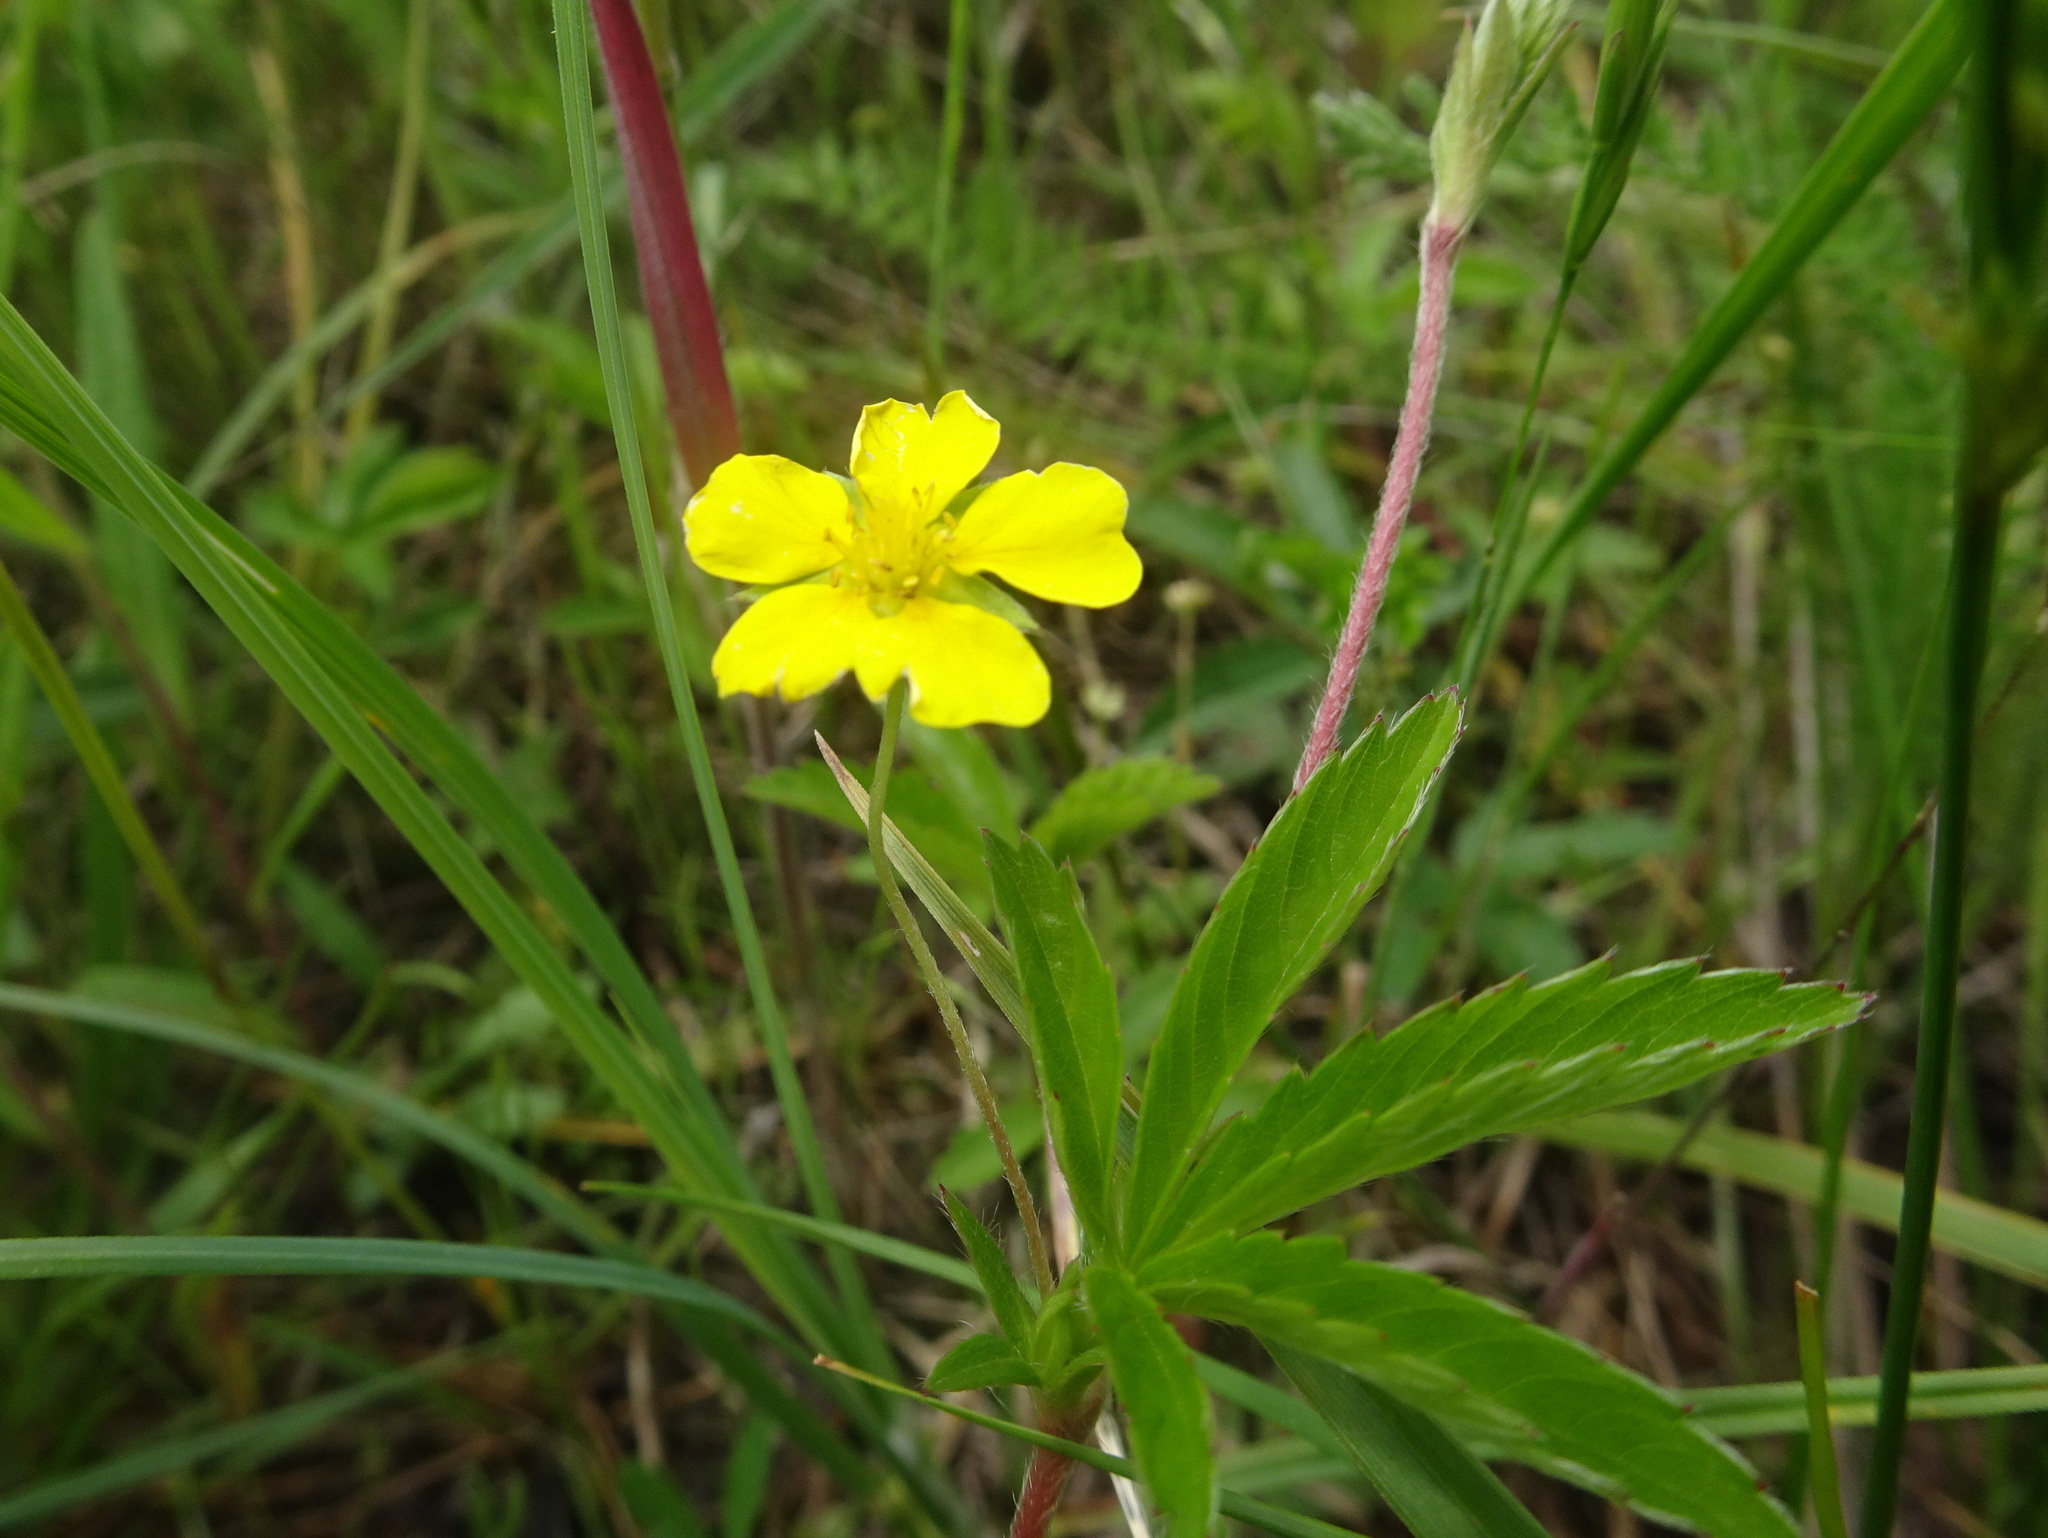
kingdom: Plantae
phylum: Tracheophyta
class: Magnoliopsida
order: Rosales
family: Rosaceae
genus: Potentilla
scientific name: Potentilla simplex
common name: Old field cinquefoil
